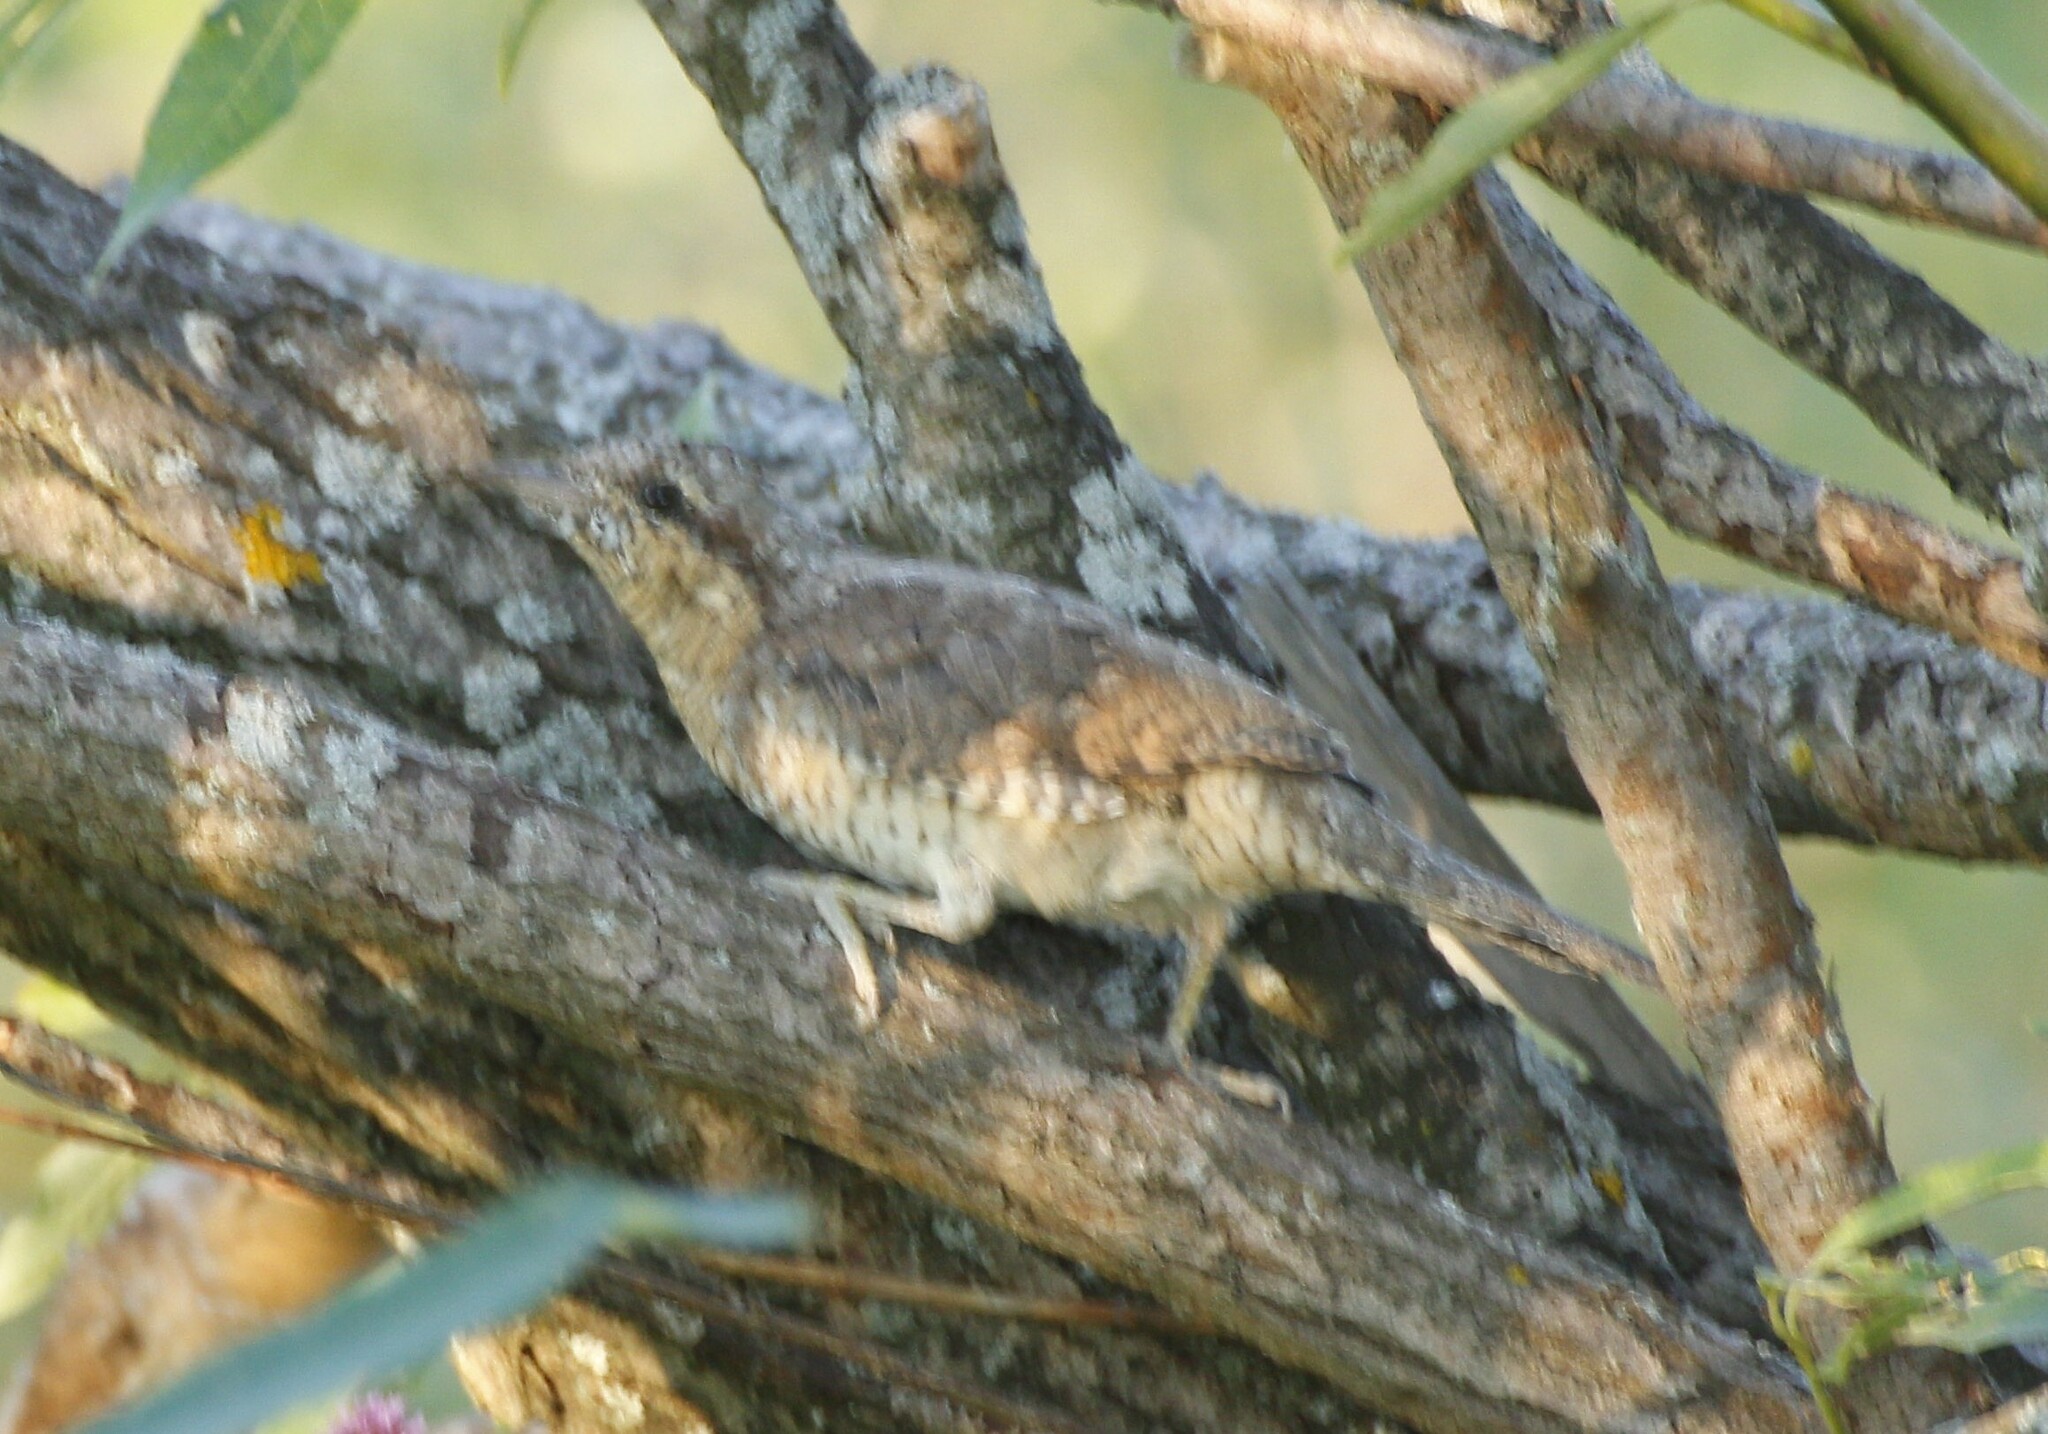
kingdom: Animalia
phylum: Chordata
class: Aves
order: Piciformes
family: Picidae
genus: Jynx
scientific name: Jynx torquilla
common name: Eurasian wryneck
